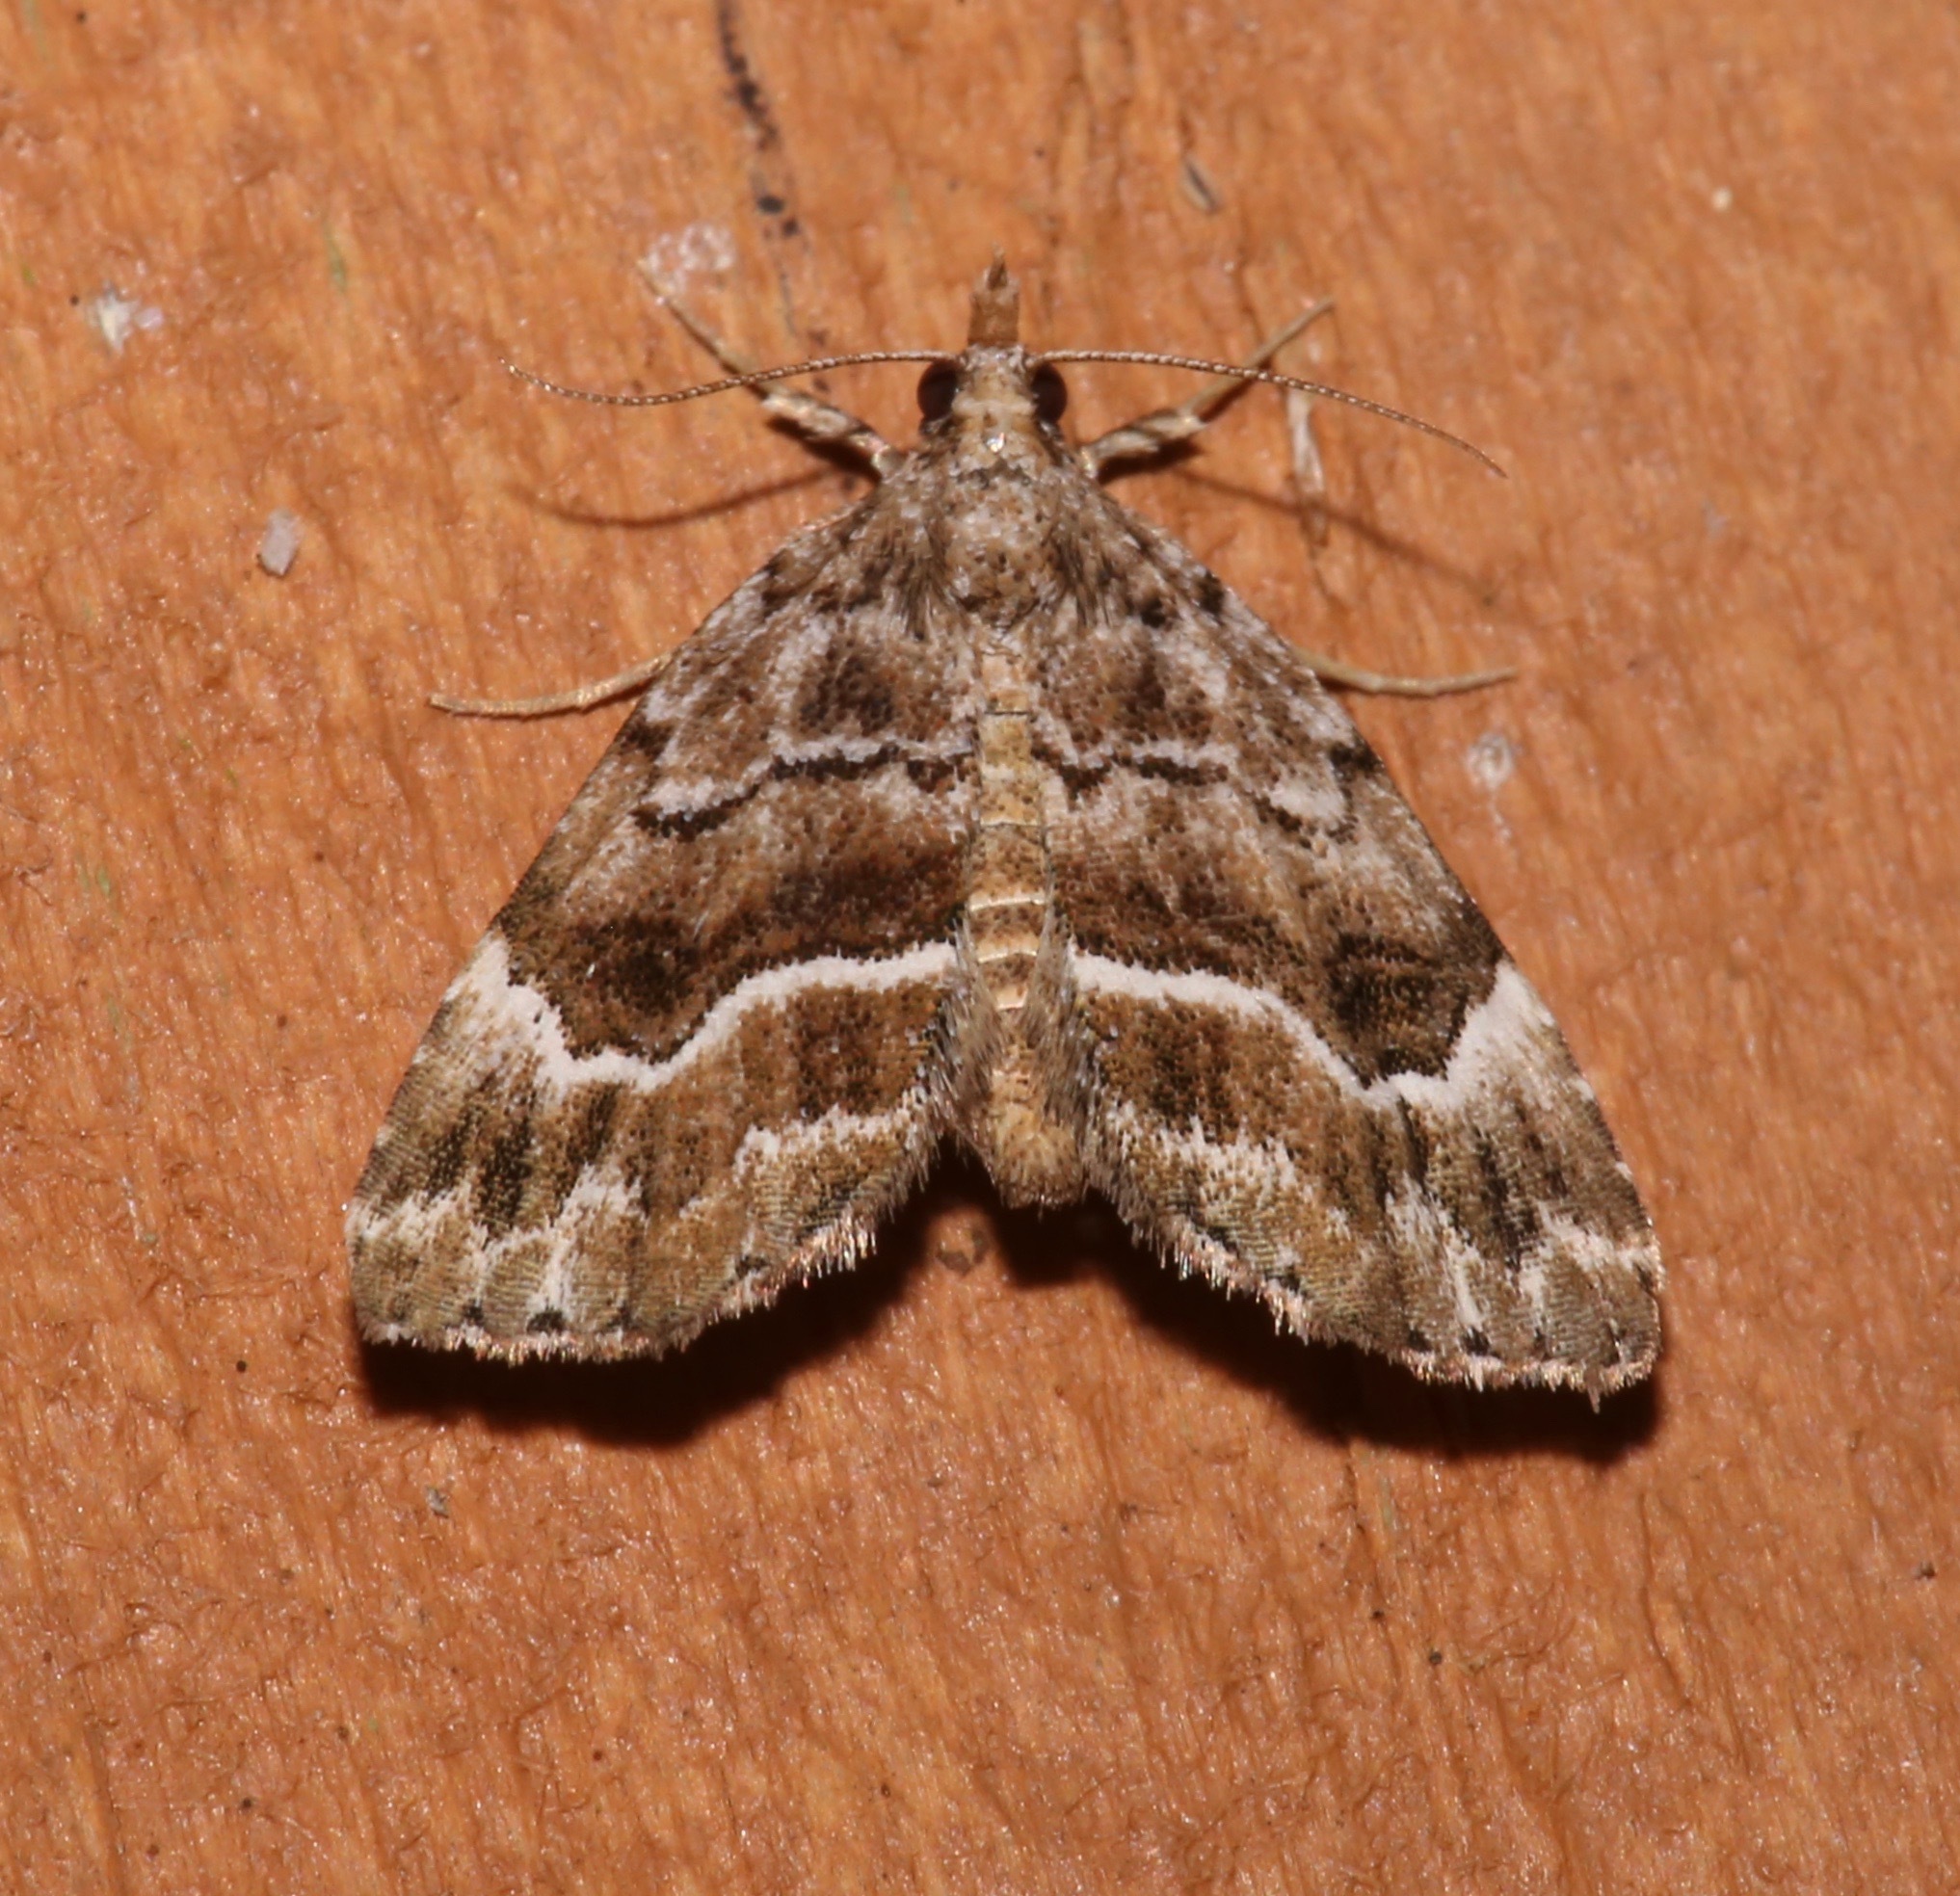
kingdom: Animalia
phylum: Arthropoda
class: Insecta
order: Lepidoptera
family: Erebidae
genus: Cutina
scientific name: Cutina arcuata
